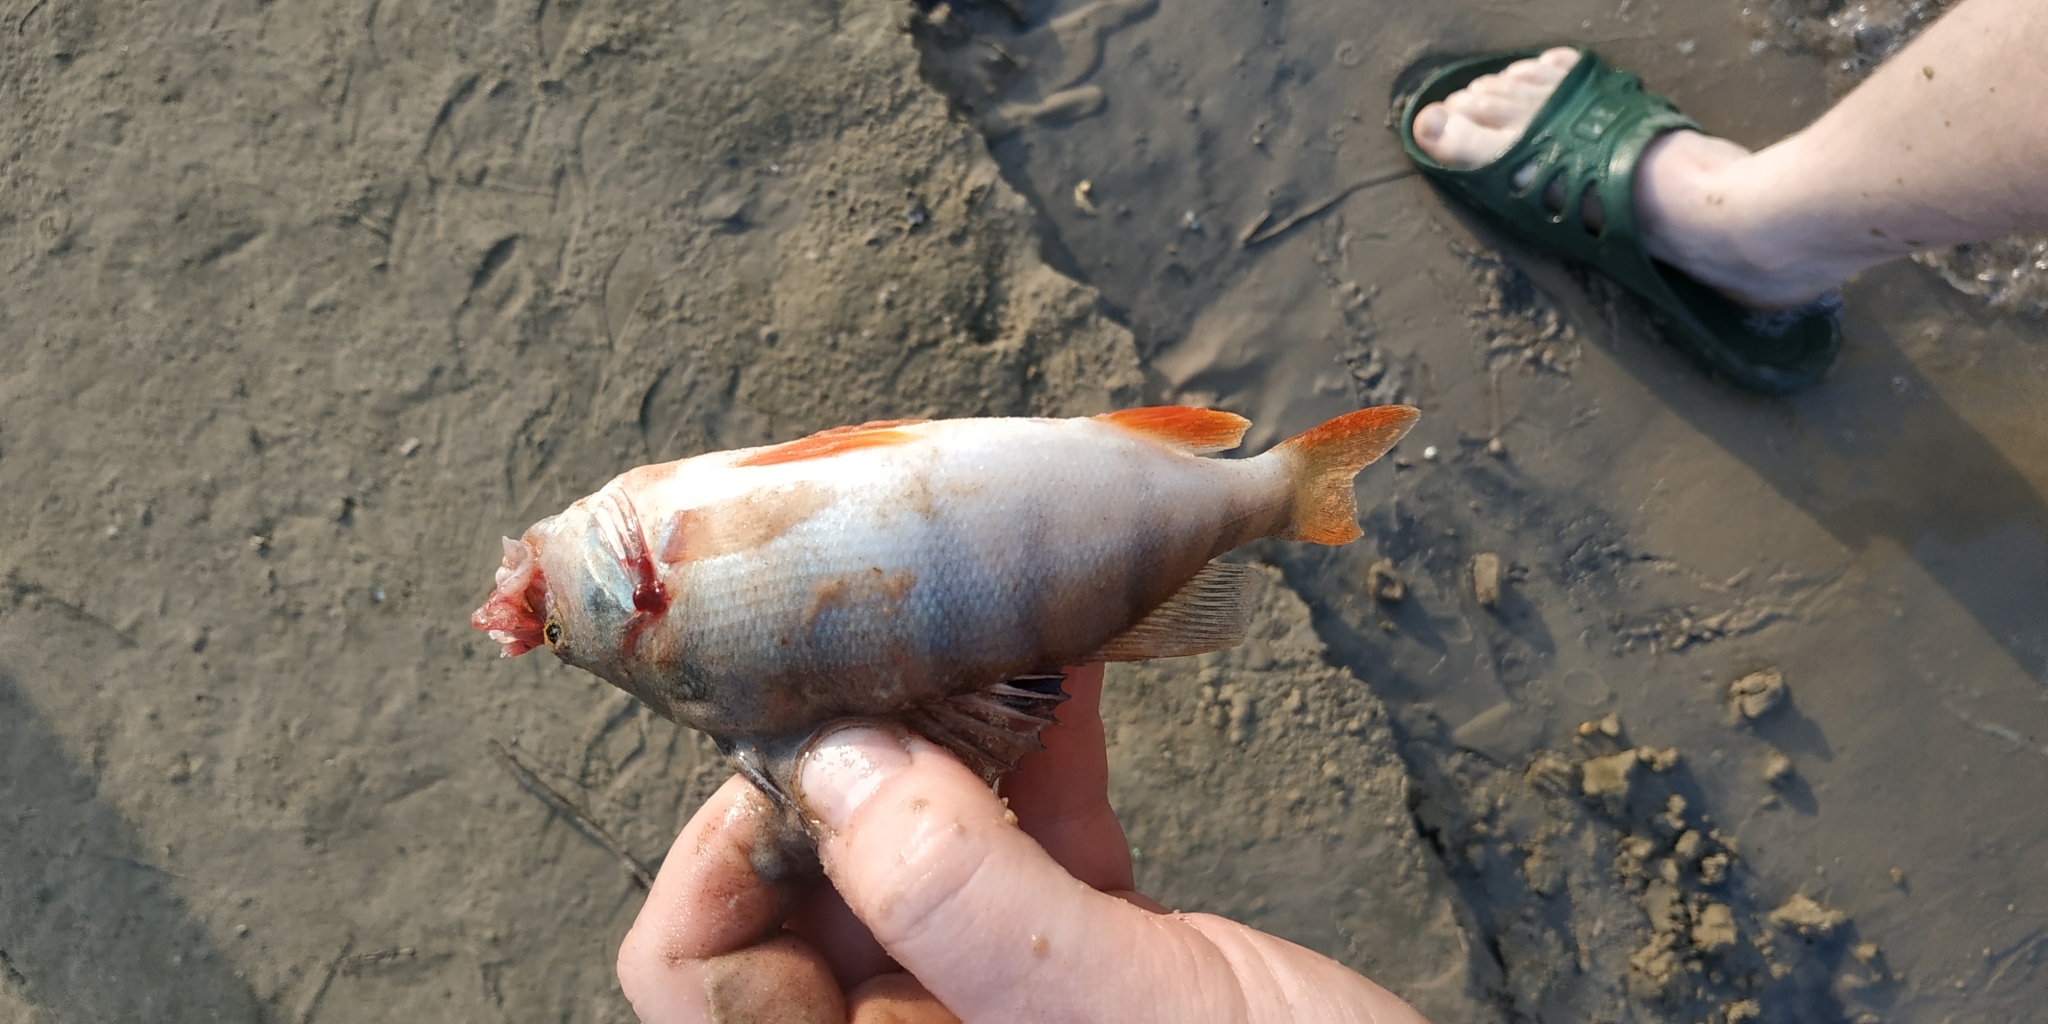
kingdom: Animalia
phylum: Chordata
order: Perciformes
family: Percidae
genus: Perca
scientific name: Perca fluviatilis
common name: Perch
